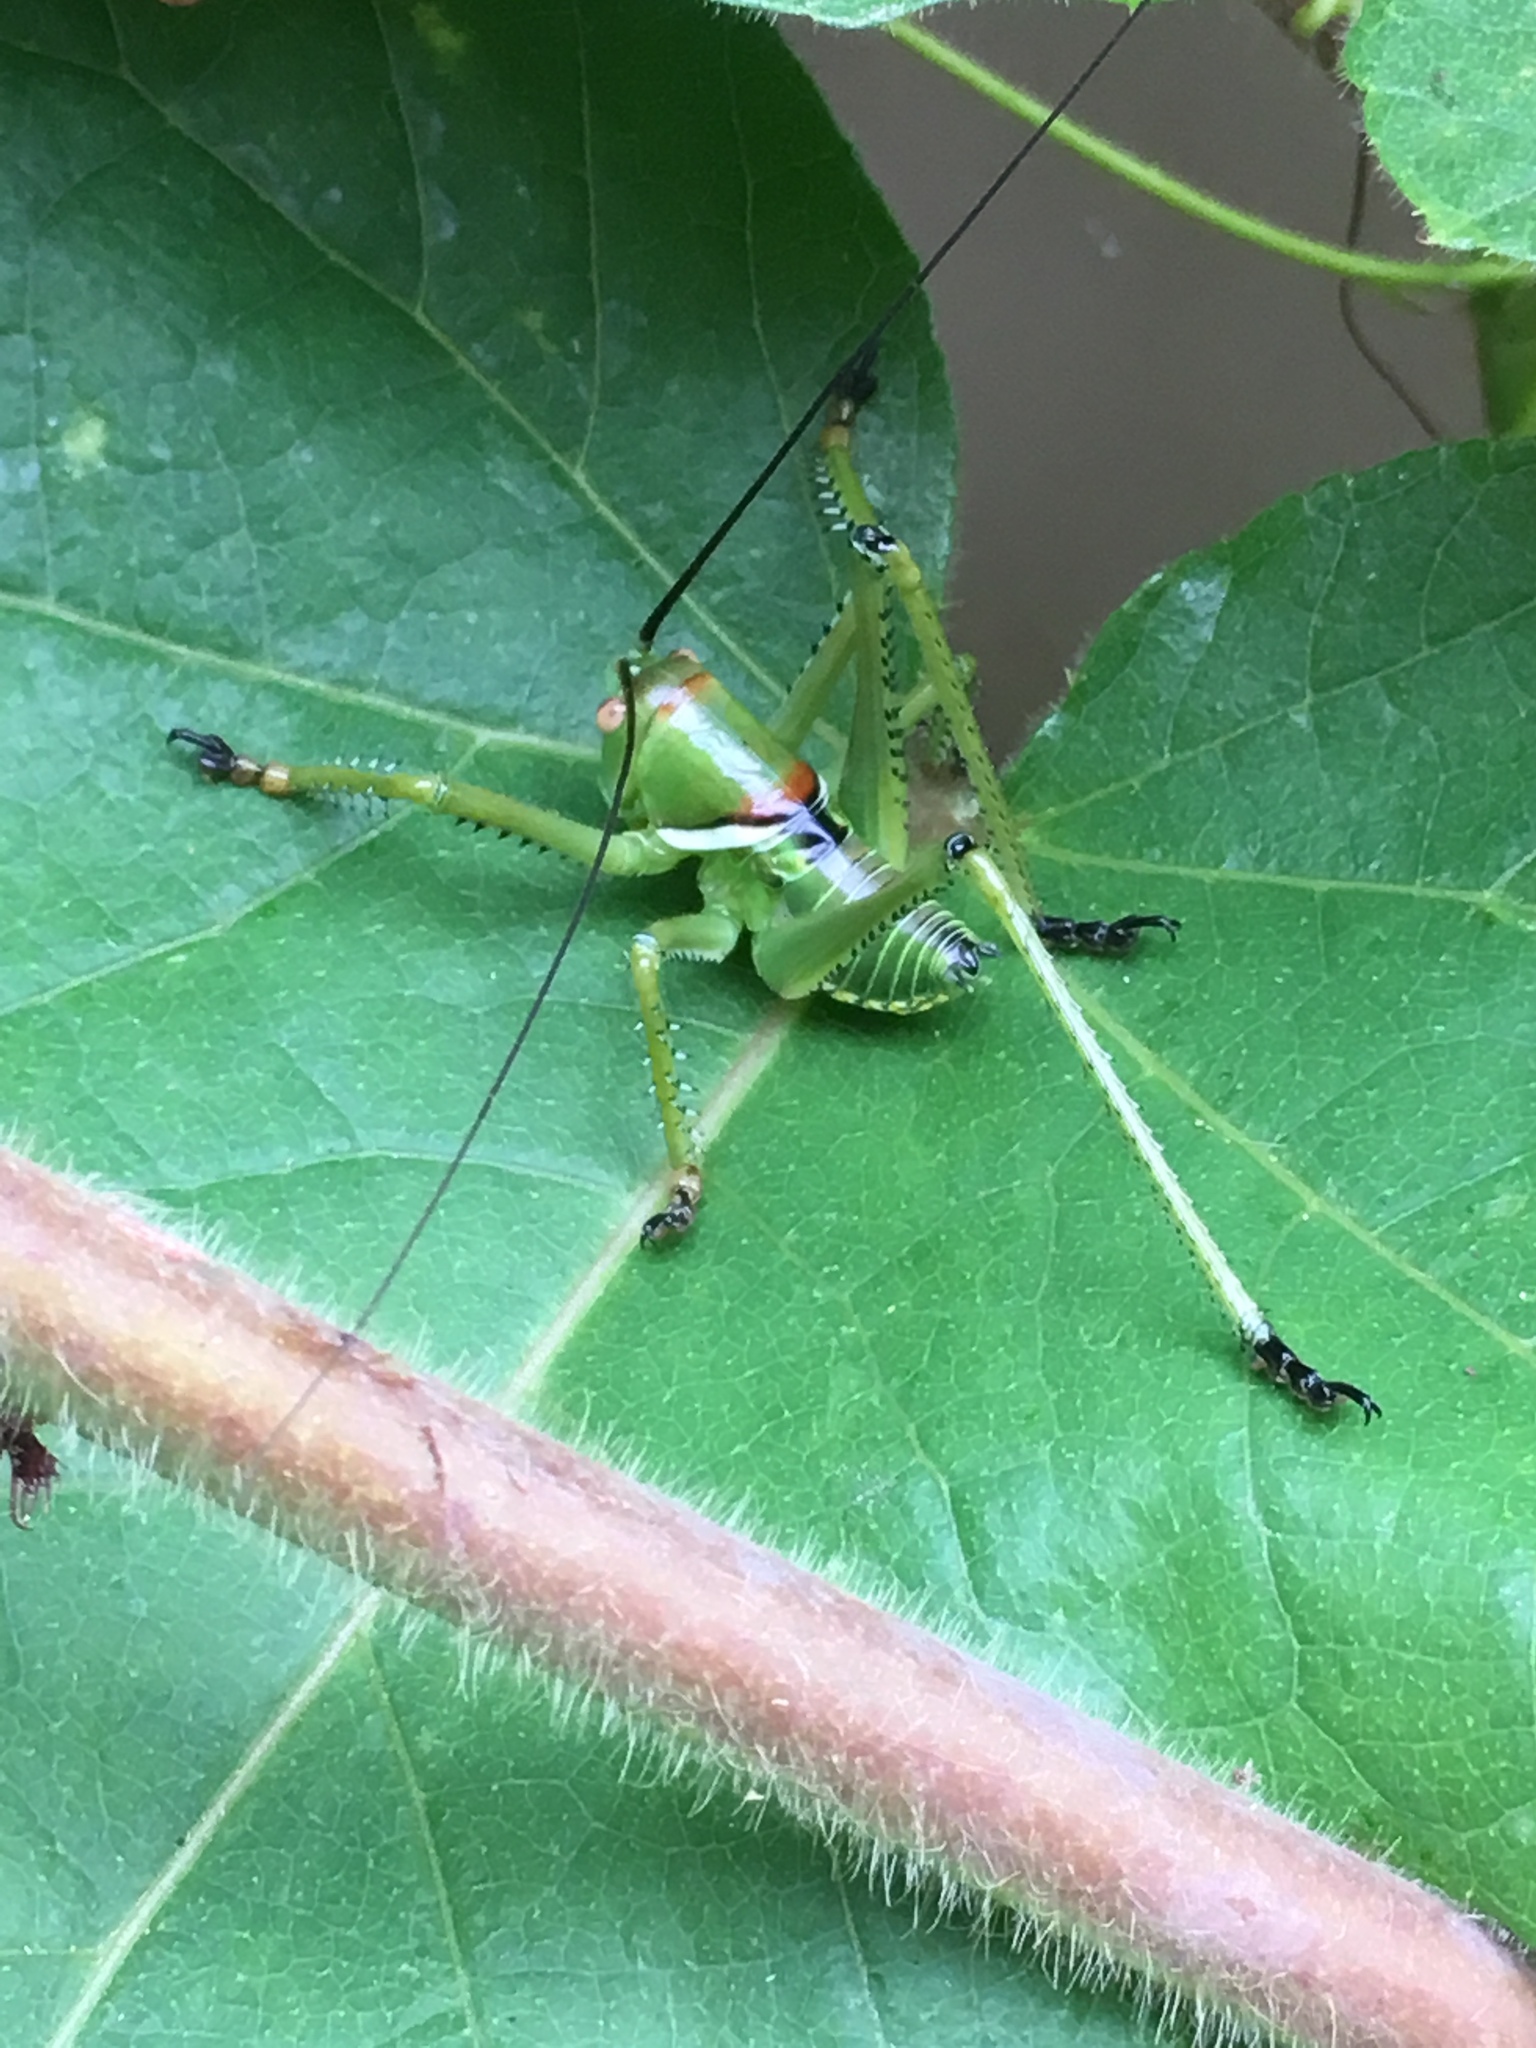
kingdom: Animalia
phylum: Arthropoda
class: Insecta
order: Orthoptera
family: Tettigoniidae
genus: Neobarrettia
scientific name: Neobarrettia spinosa
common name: Greater arid-land katydid
